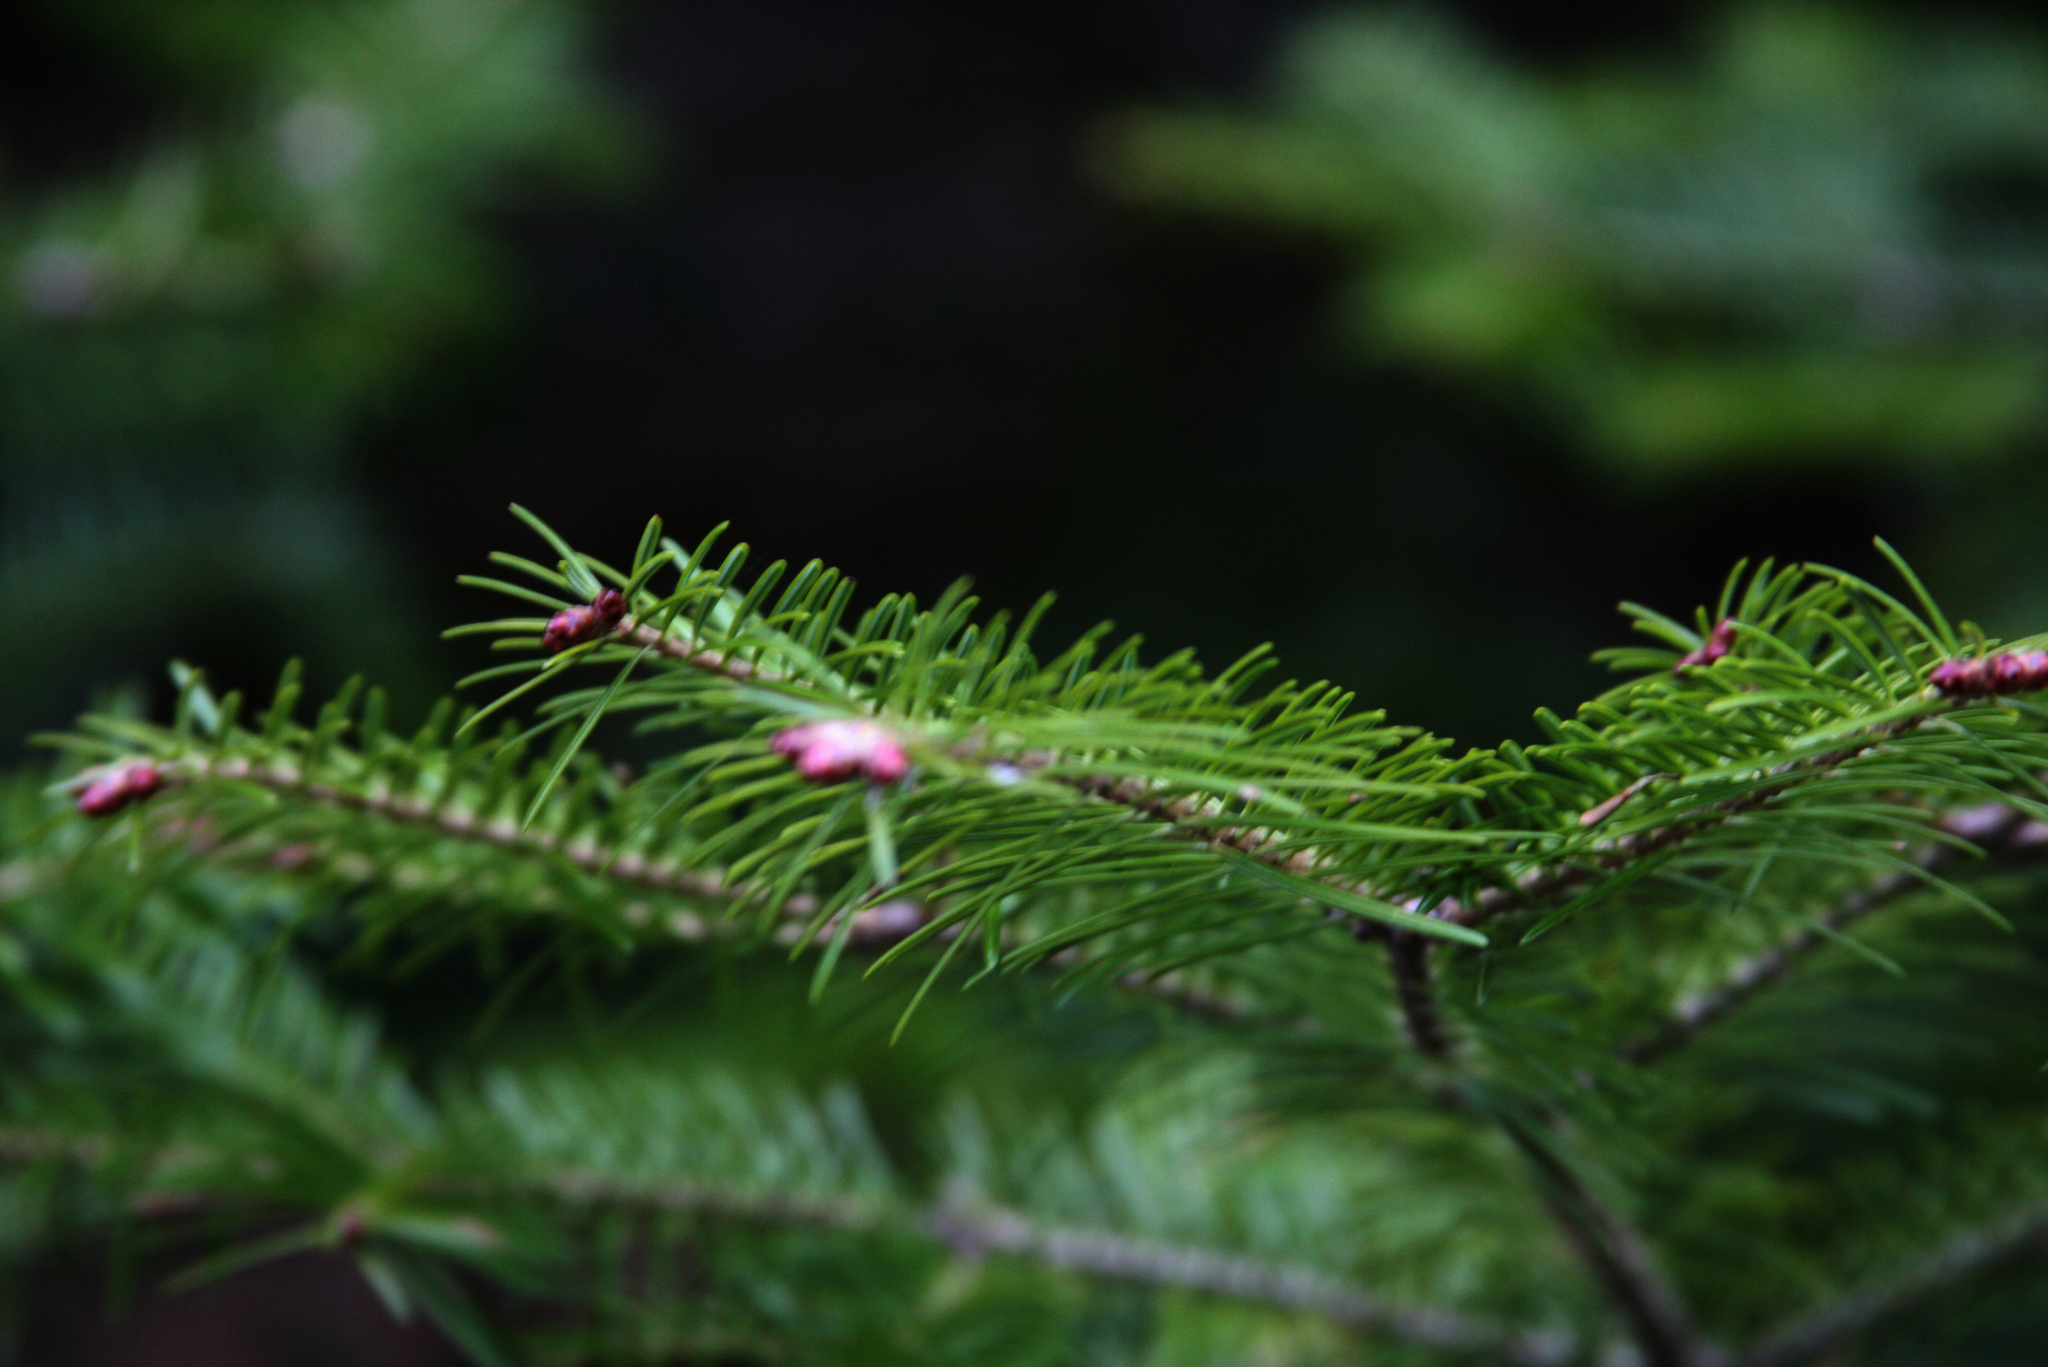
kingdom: Plantae
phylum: Tracheophyta
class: Pinopsida
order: Pinales
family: Pinaceae
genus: Abies
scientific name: Abies balsamea
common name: Balsam fir
